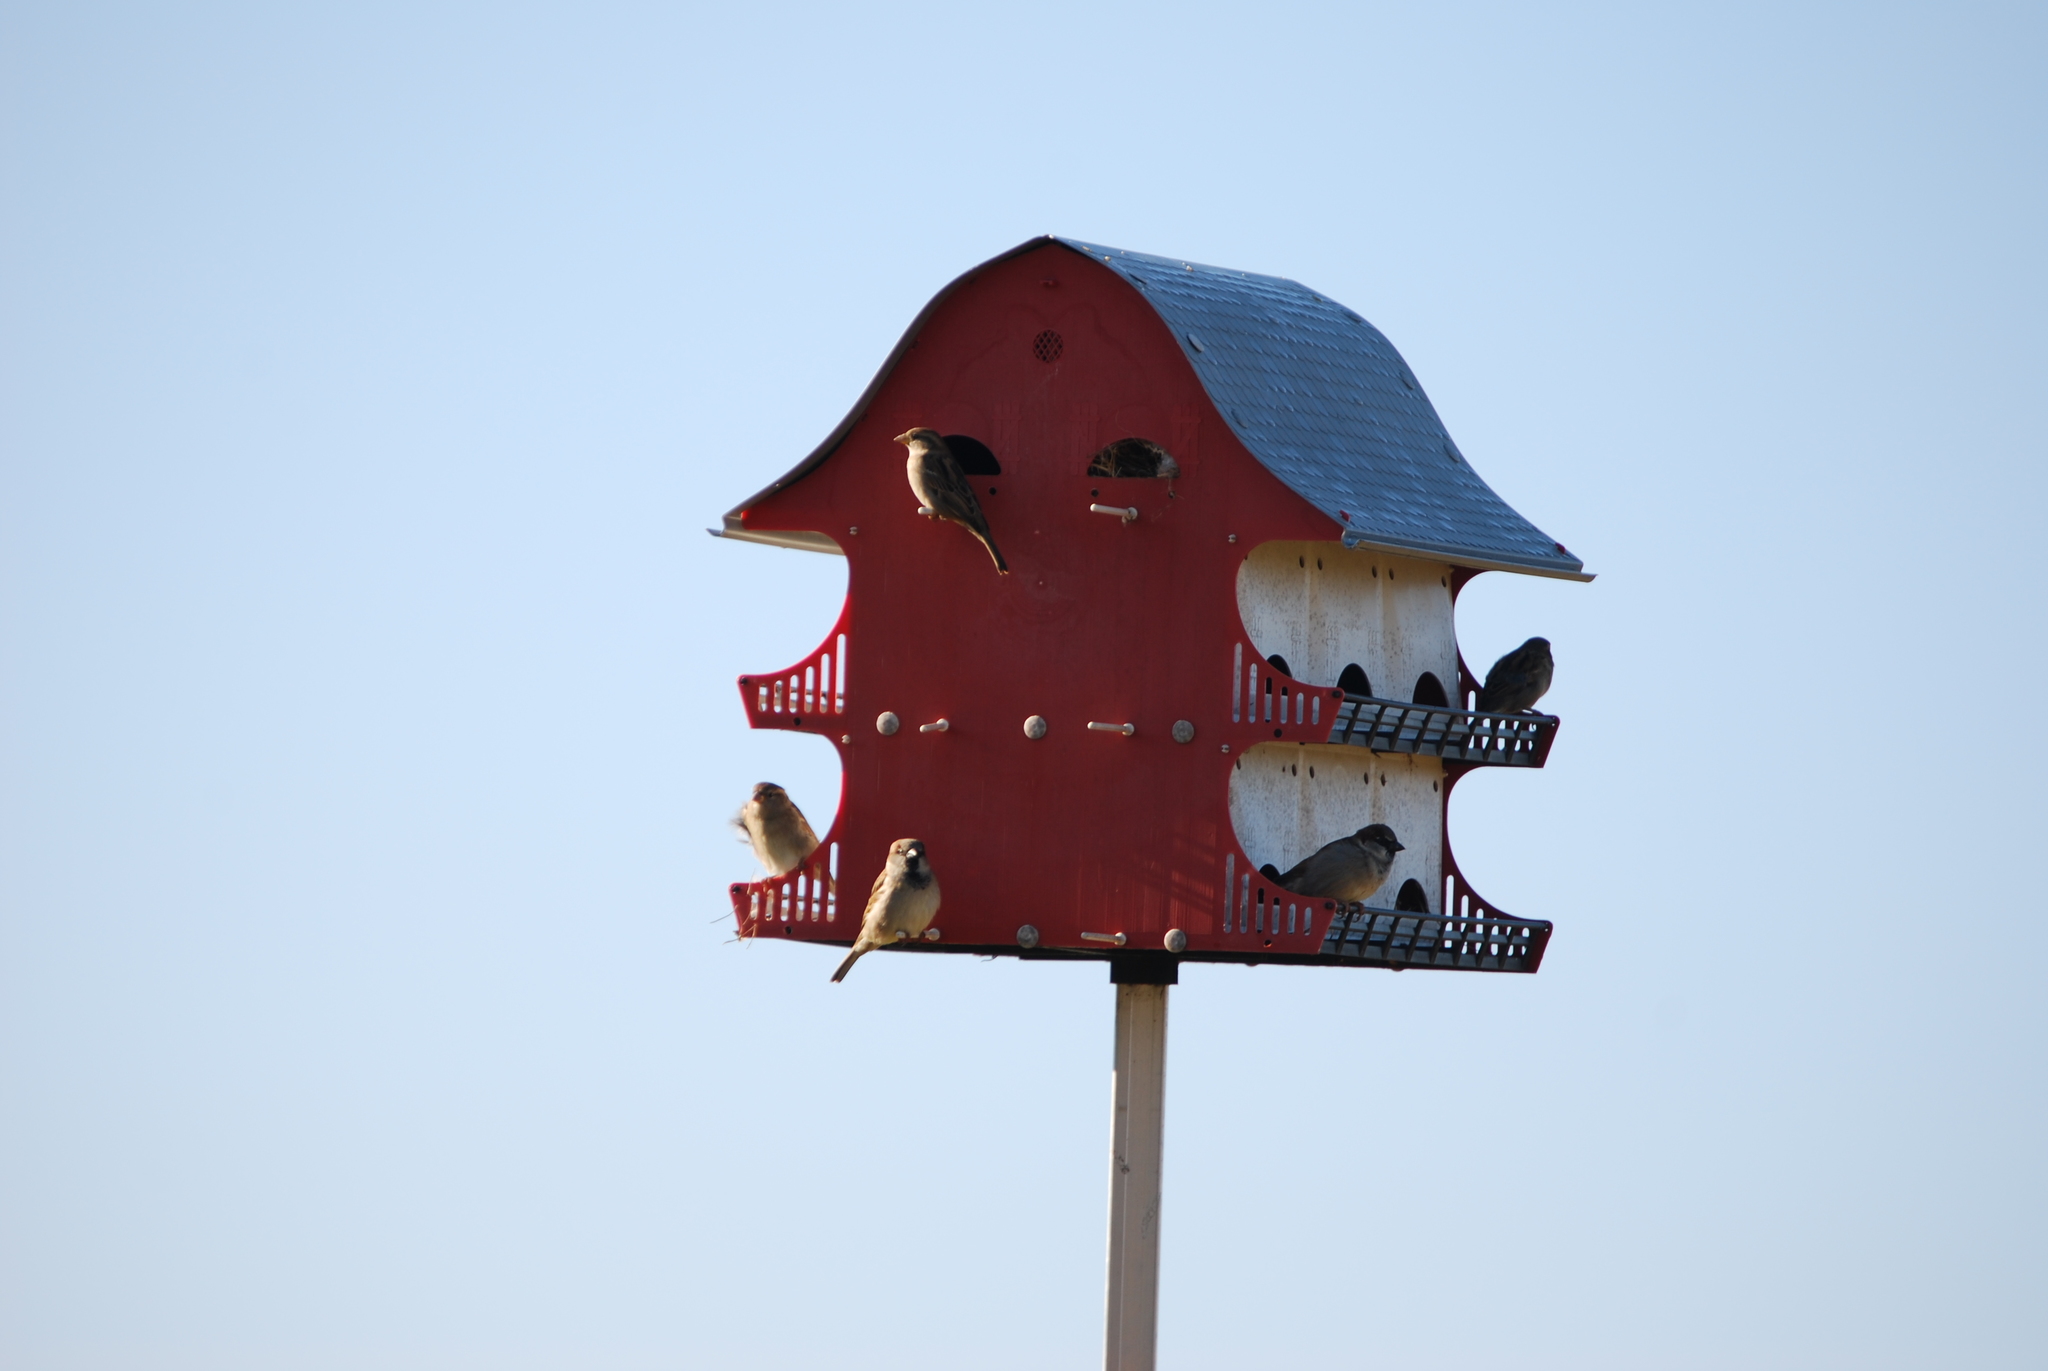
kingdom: Animalia
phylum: Chordata
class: Aves
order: Passeriformes
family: Passeridae
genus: Passer
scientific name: Passer domesticus
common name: House sparrow
